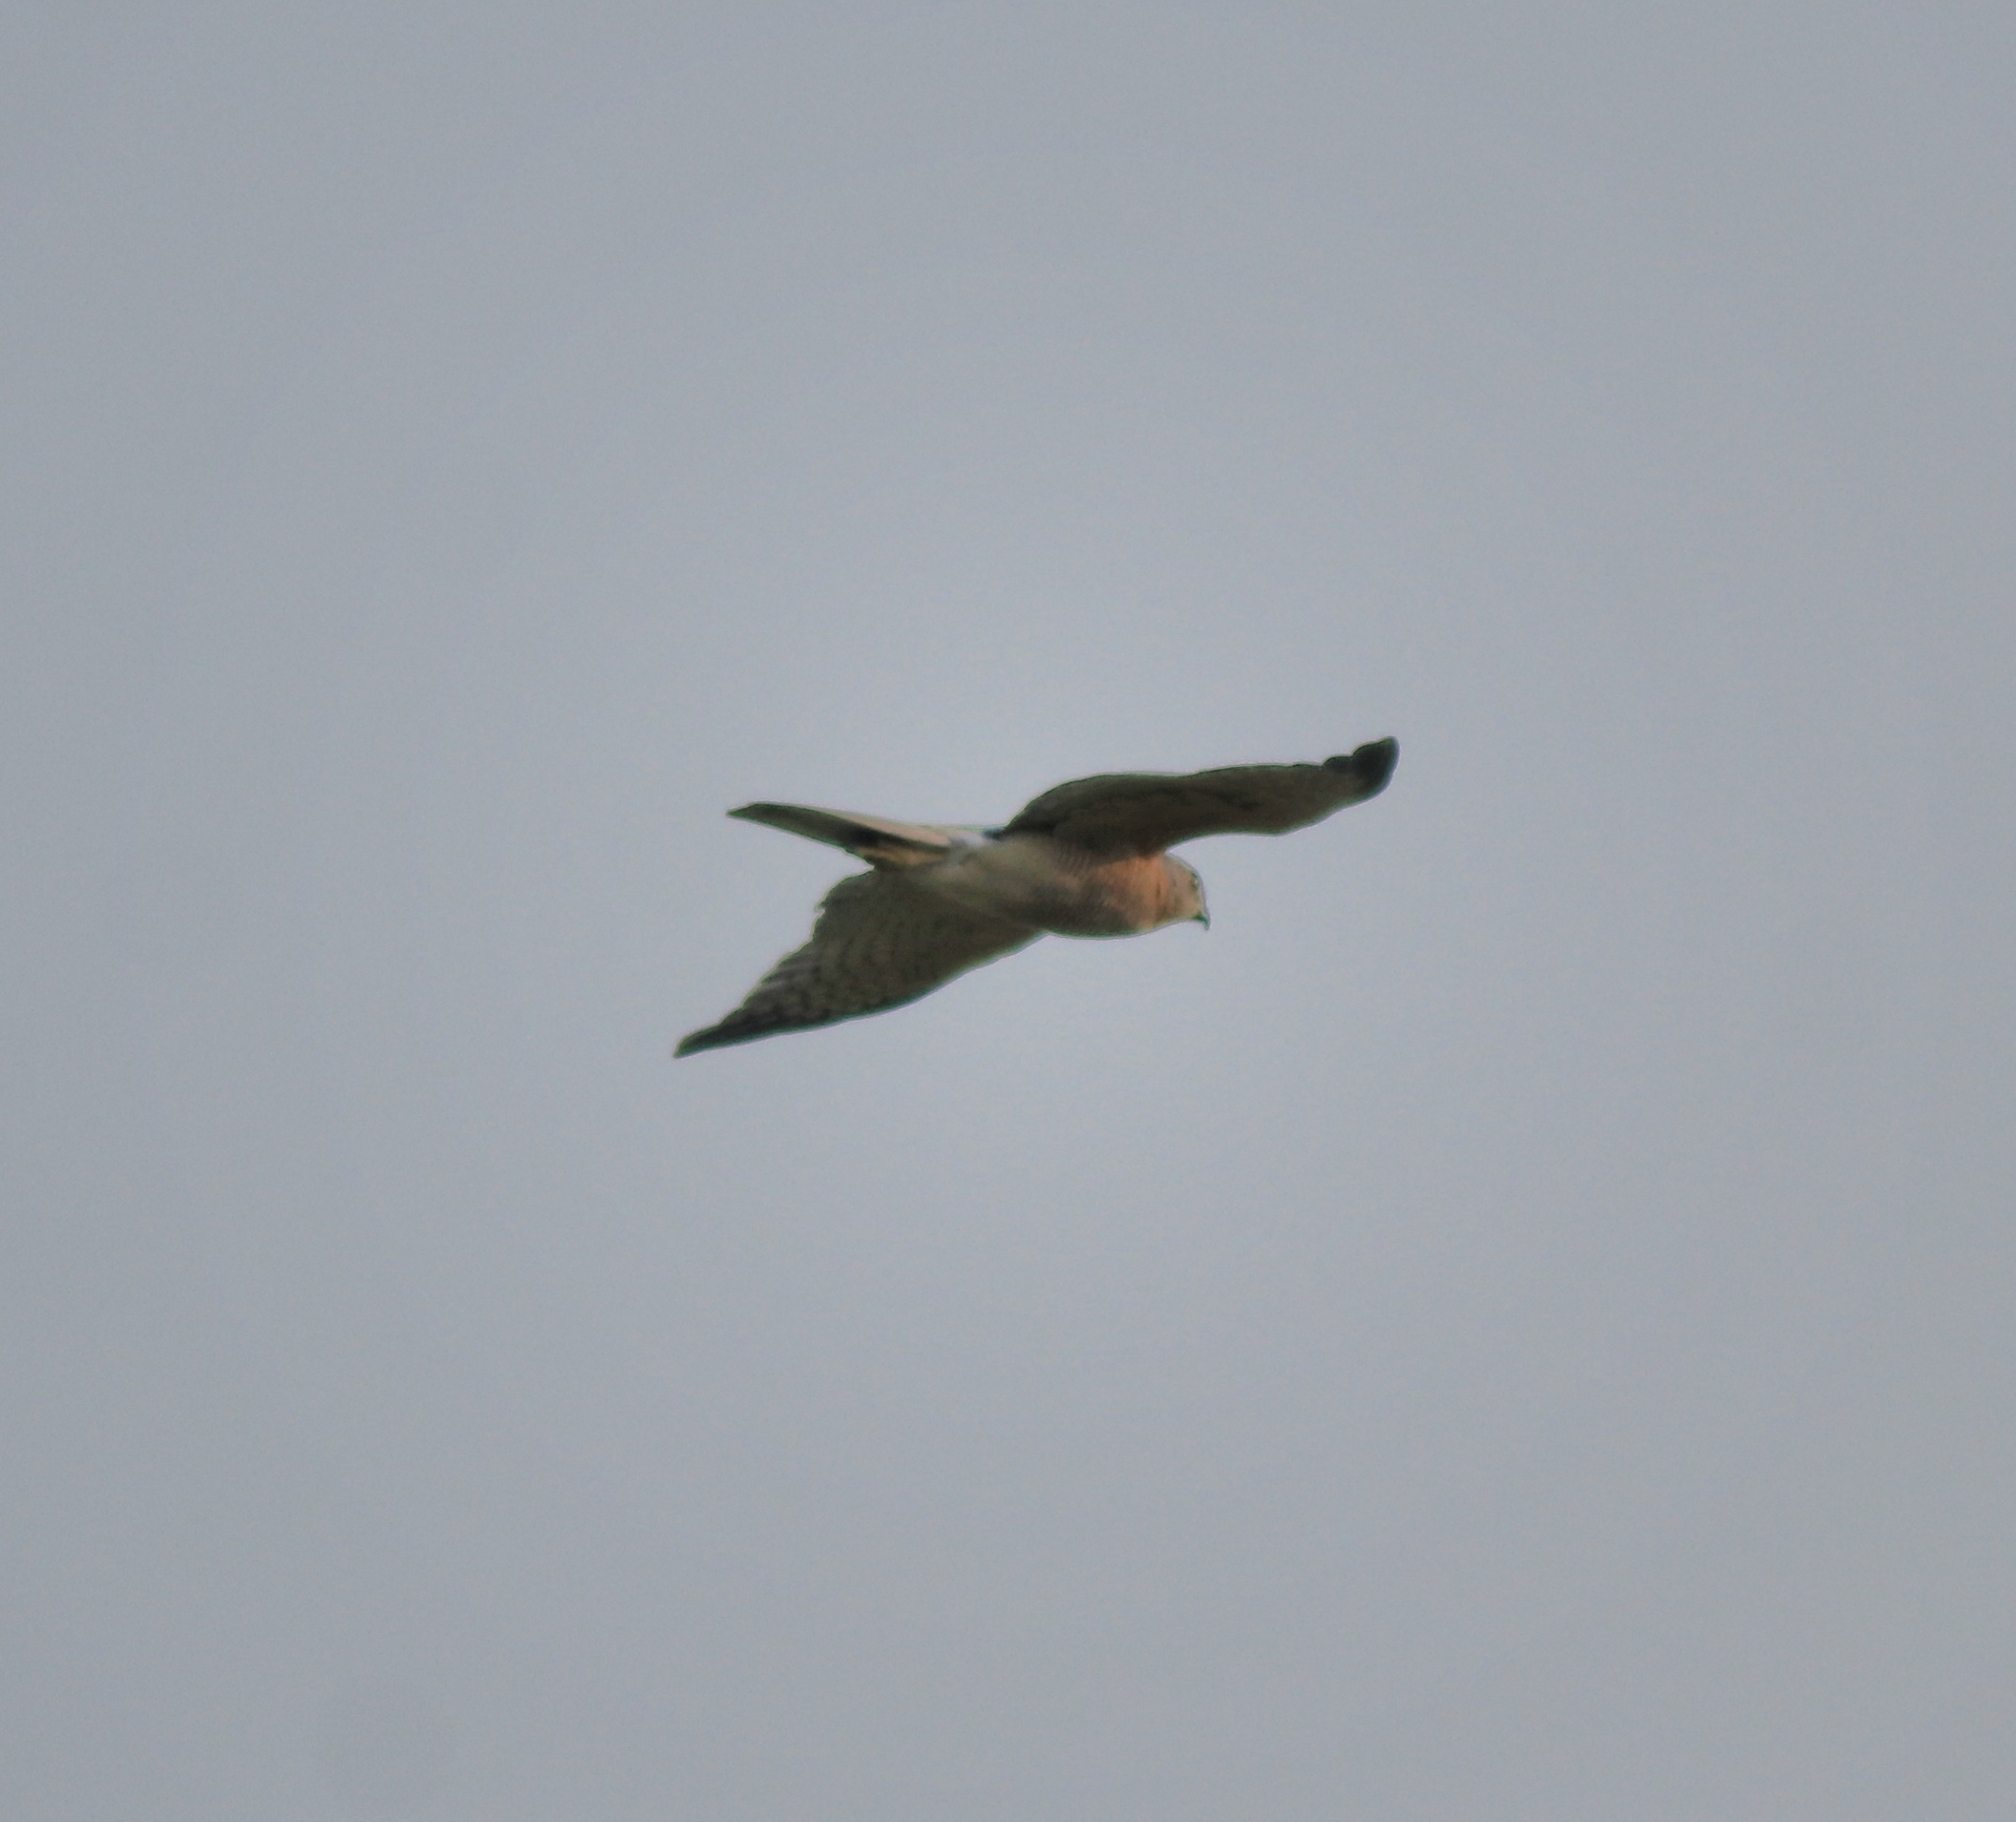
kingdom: Animalia
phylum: Chordata
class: Aves
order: Accipitriformes
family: Accipitridae
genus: Accipiter
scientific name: Accipiter badius
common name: Shikra
